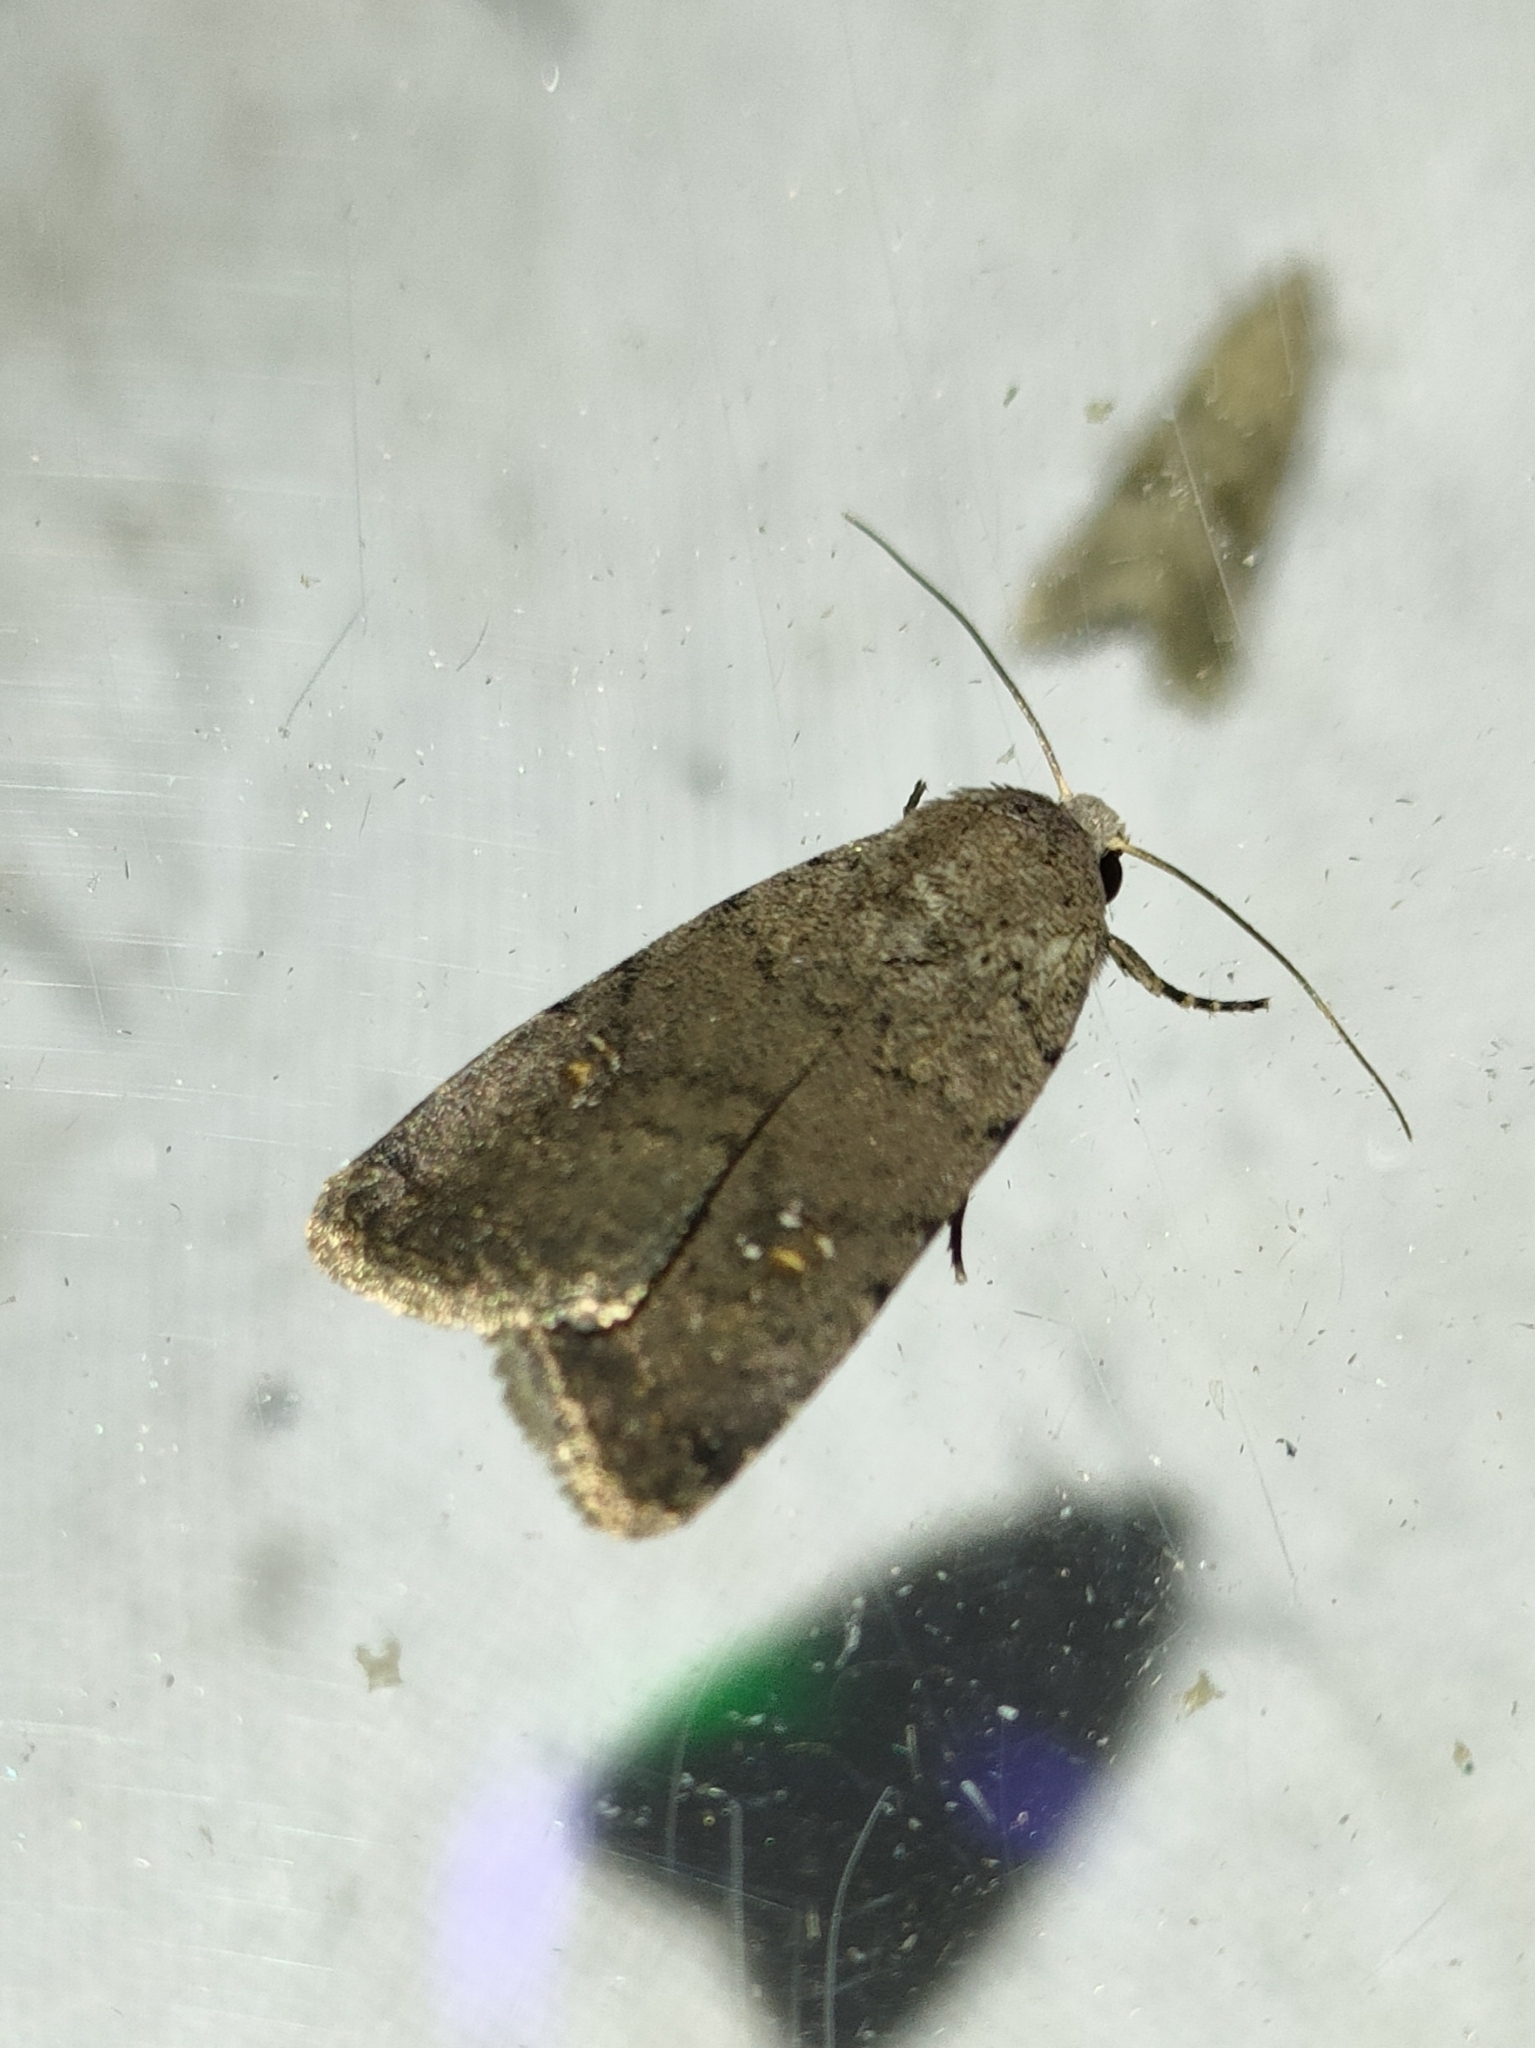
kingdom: Animalia
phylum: Arthropoda
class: Insecta
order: Lepidoptera
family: Noctuidae
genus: Caradrina
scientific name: Caradrina flavirena
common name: Lorimer's rustic
